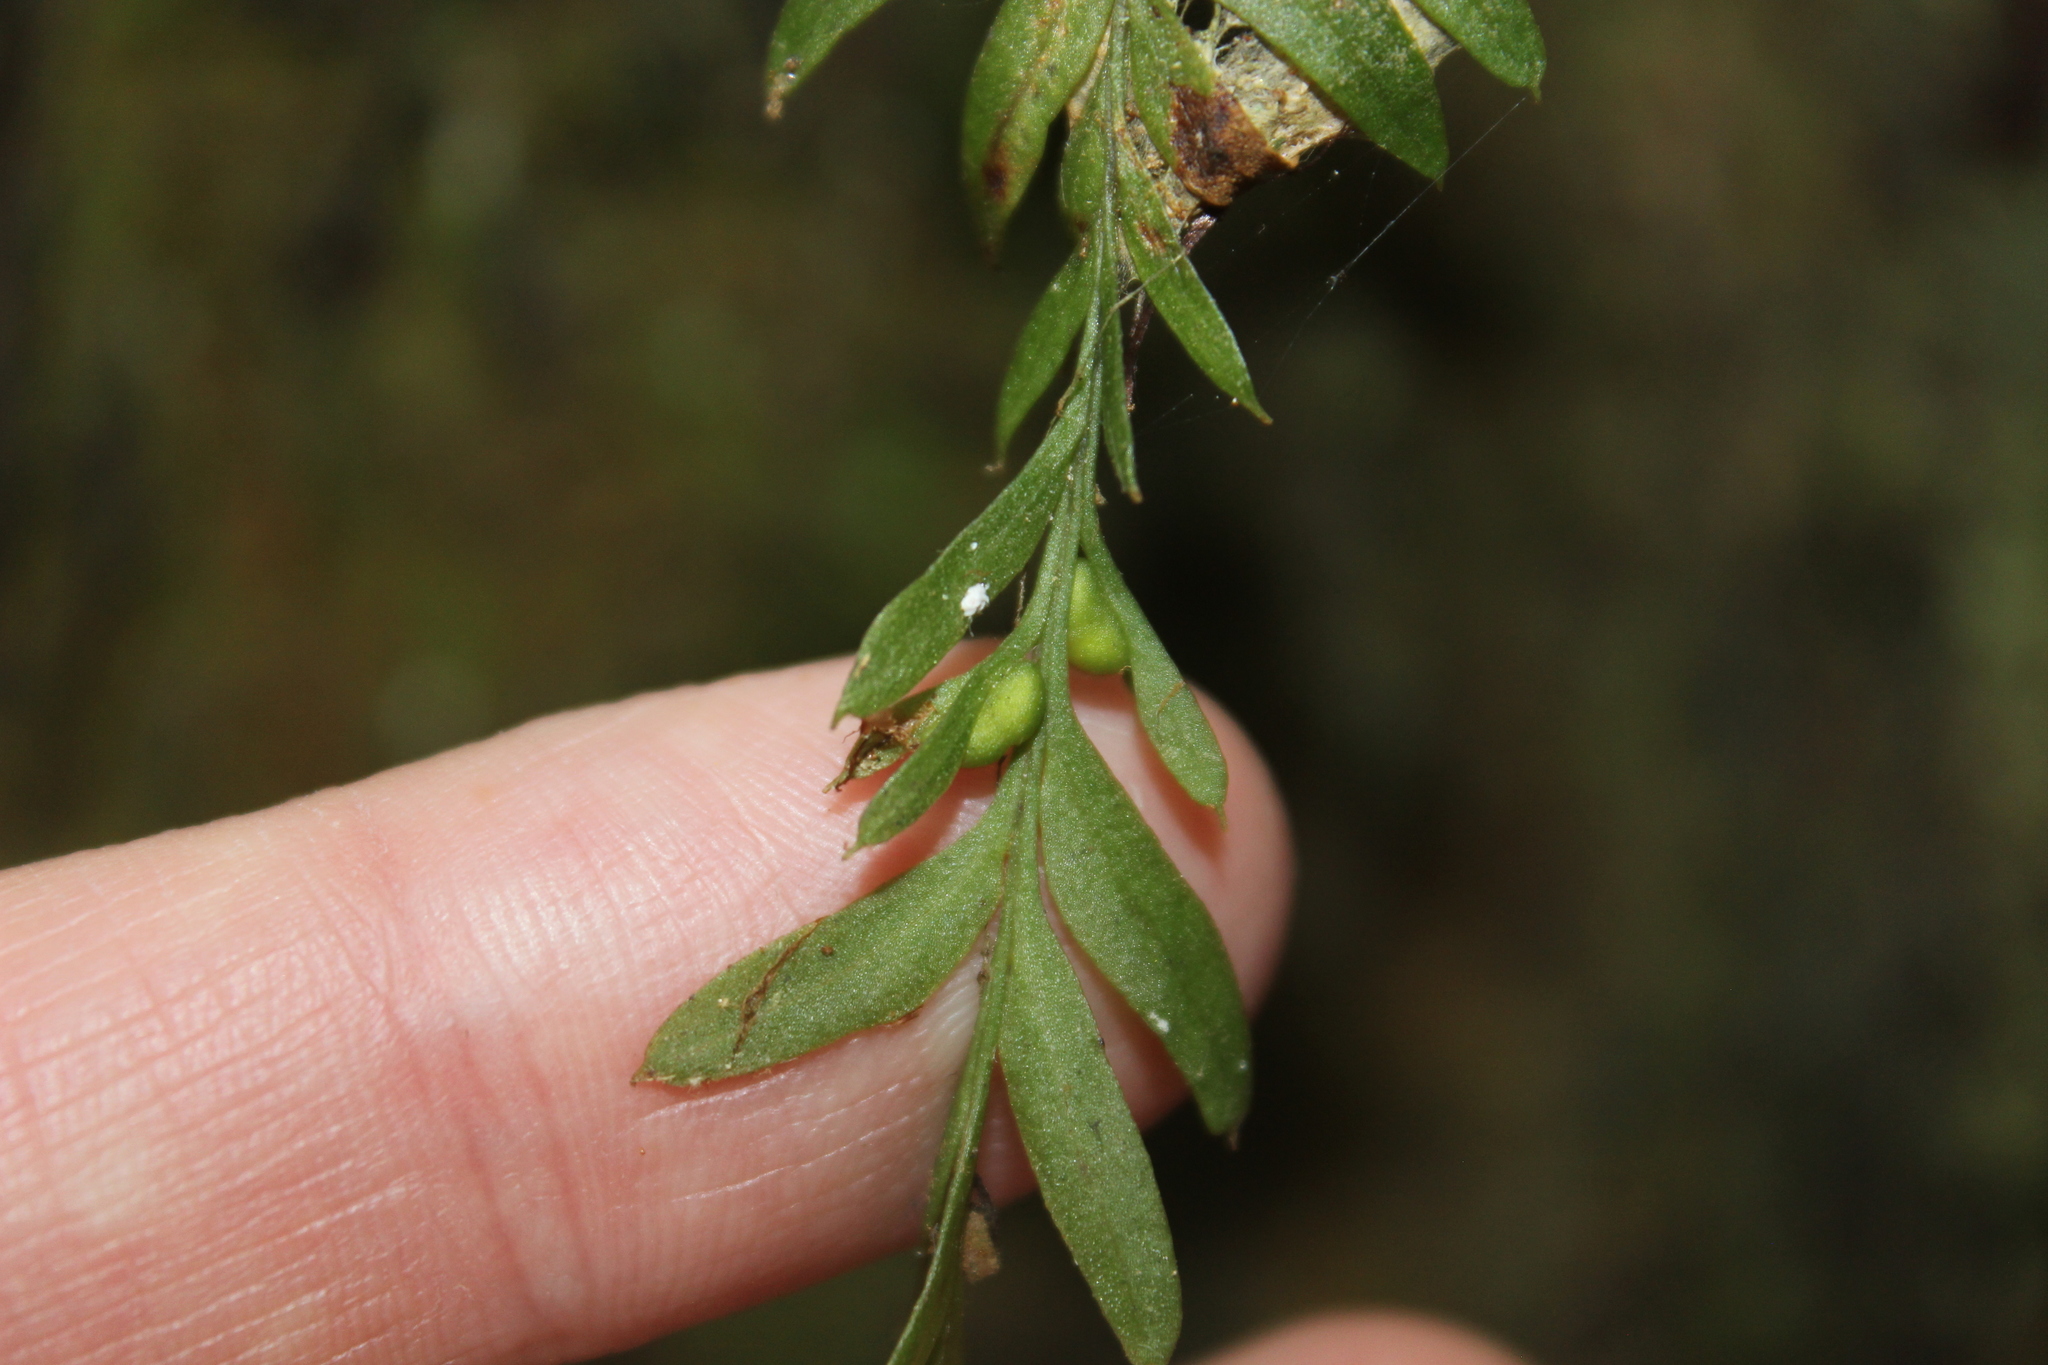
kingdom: Plantae
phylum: Tracheophyta
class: Polypodiopsida
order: Psilotales
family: Psilotaceae
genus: Tmesipteris
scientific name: Tmesipteris elongata
